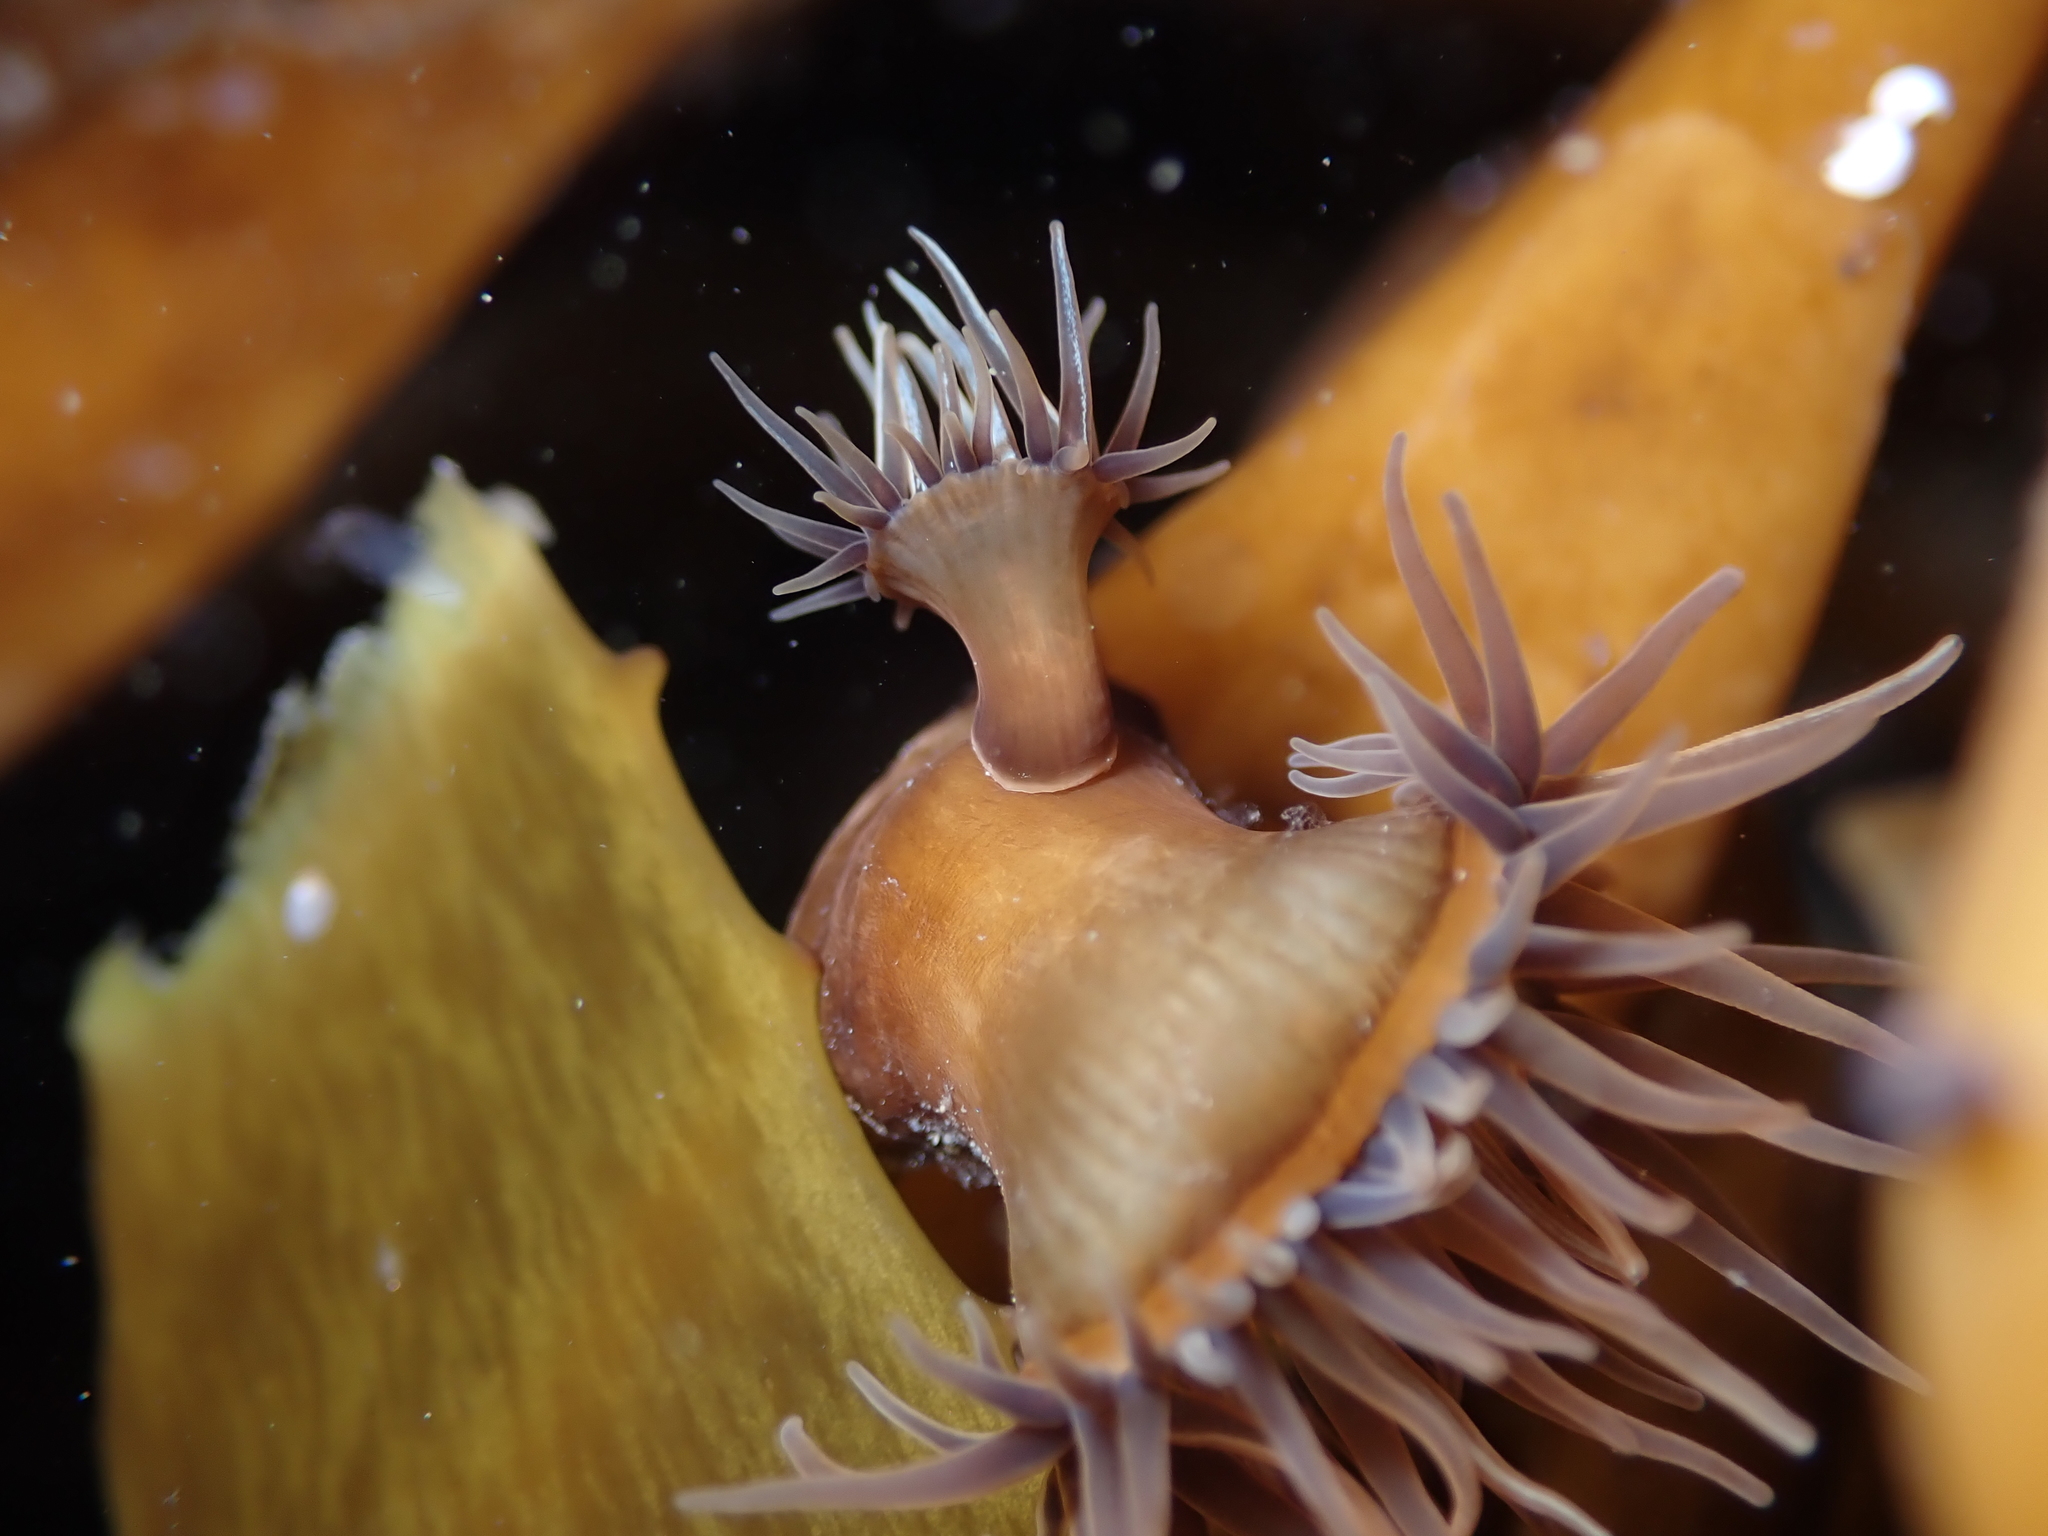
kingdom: Animalia
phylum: Cnidaria
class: Anthozoa
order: Actiniaria
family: Hormathiidae
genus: Handactis
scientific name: Handactis nutrix
